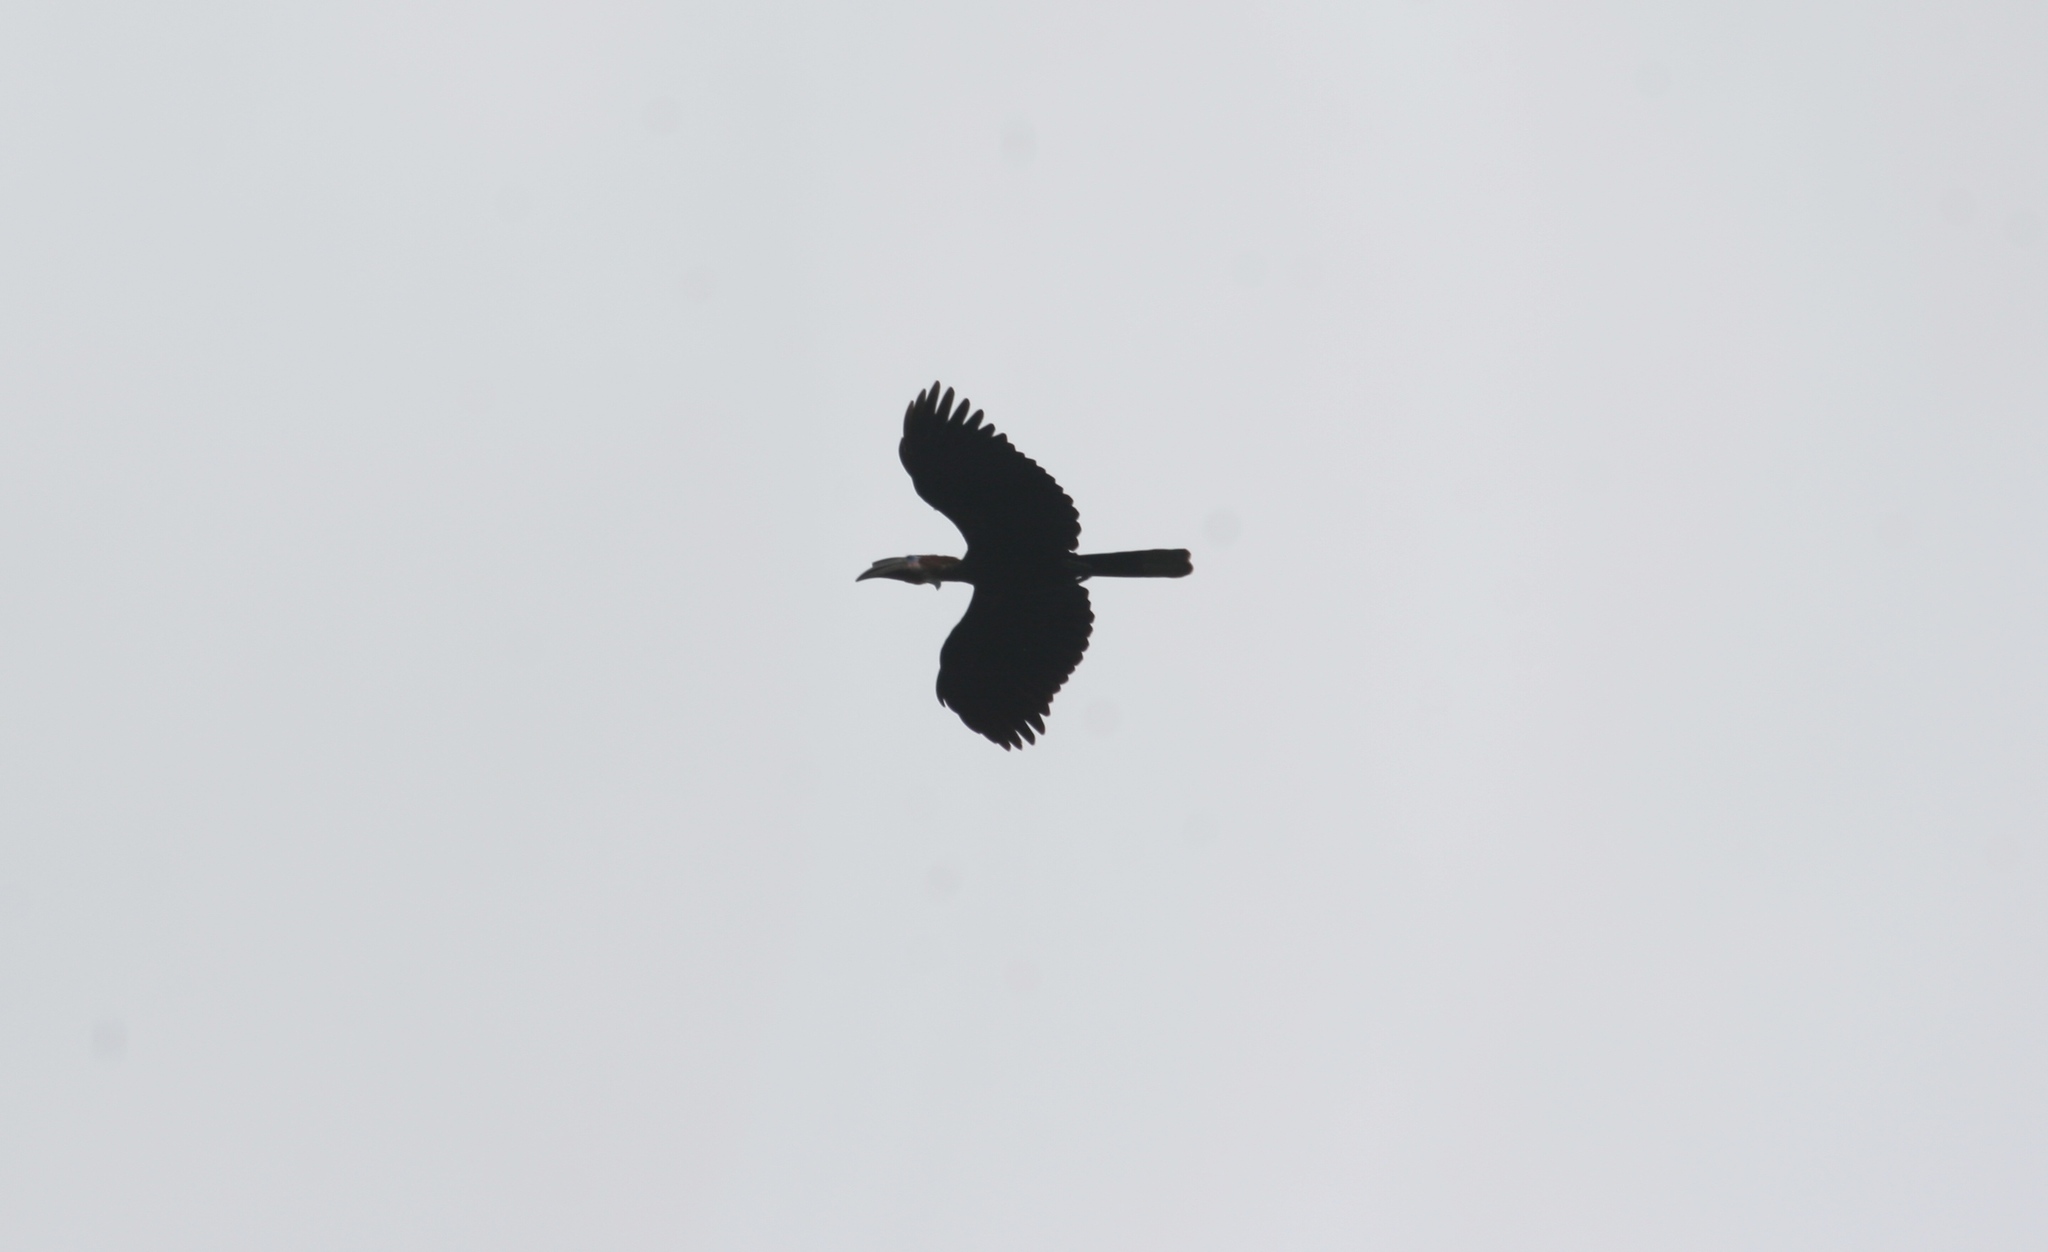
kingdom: Animalia
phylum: Chordata
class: Aves
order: Bucerotiformes
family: Bucerotidae
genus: Ceratogymna
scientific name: Ceratogymna atrata
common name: Black-casqued hornbill
